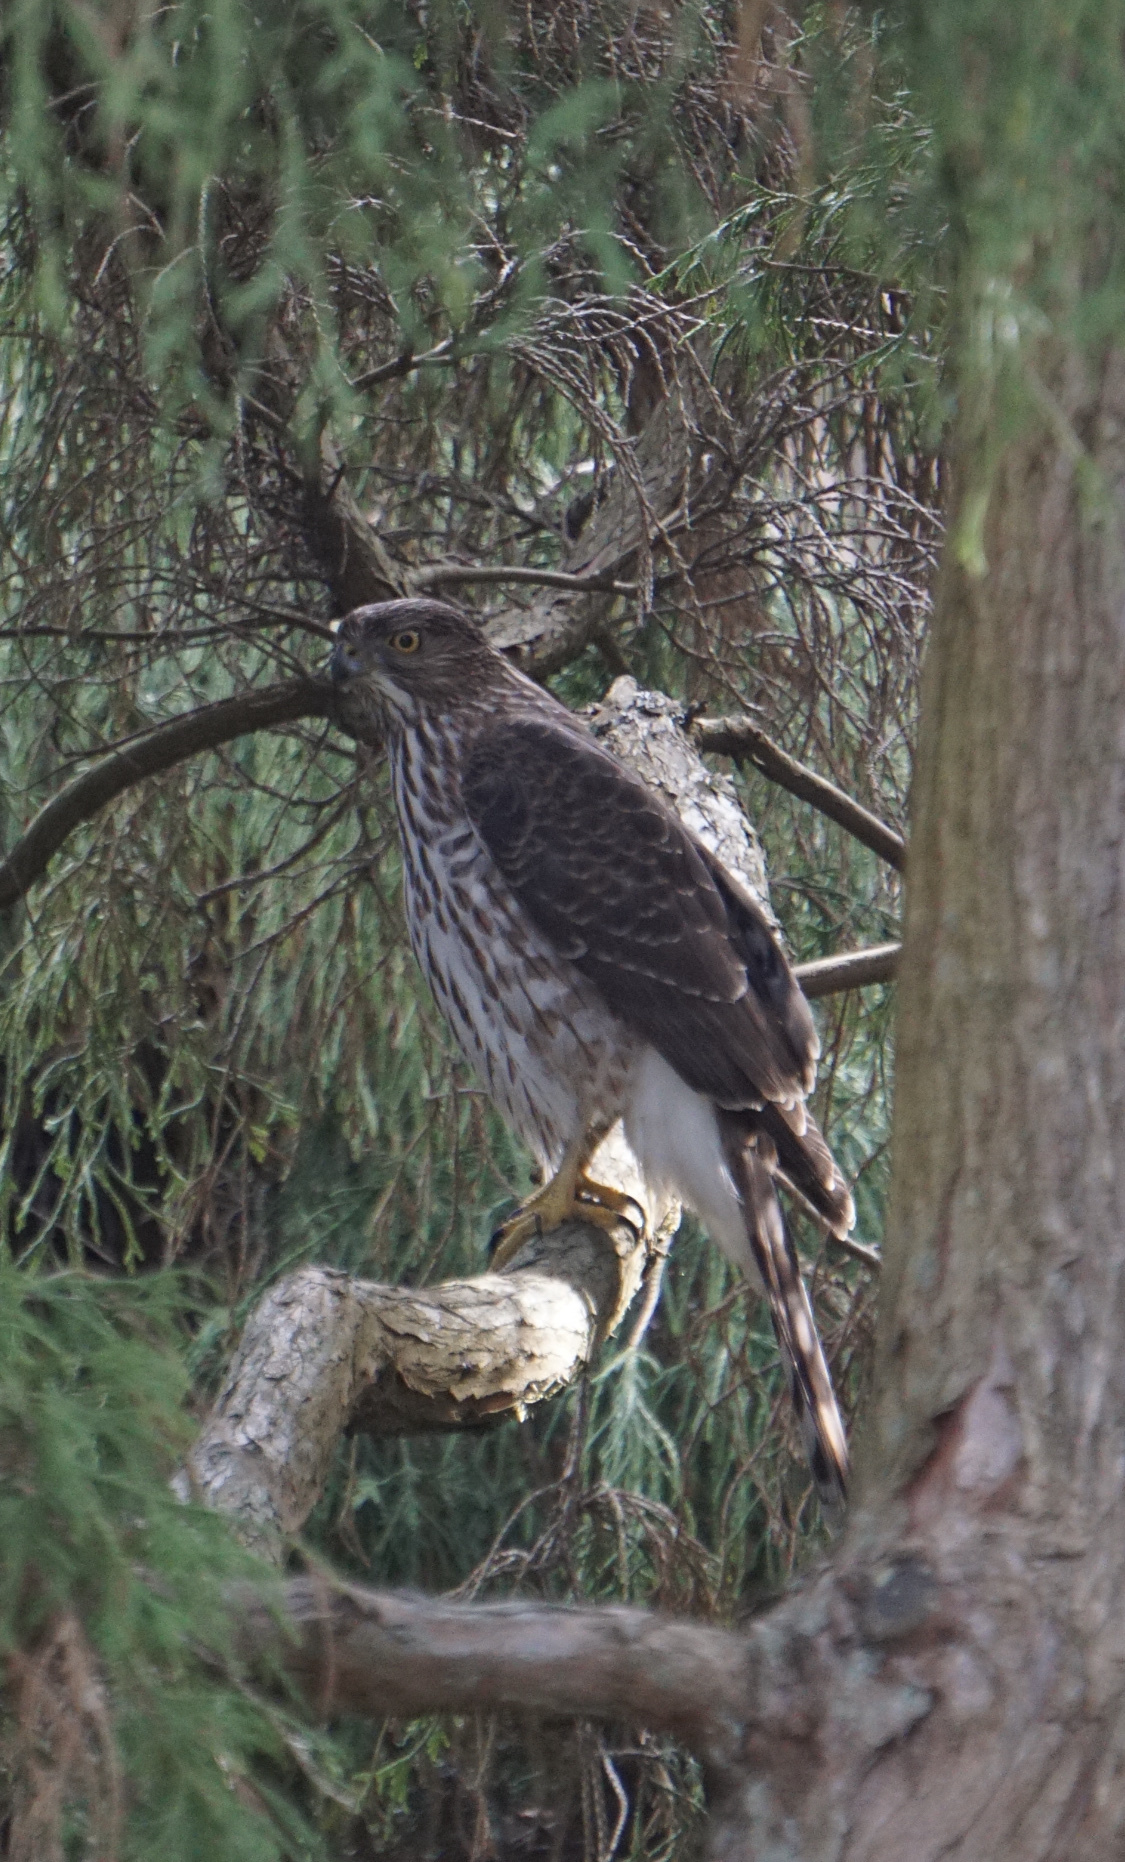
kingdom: Animalia
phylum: Chordata
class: Aves
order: Accipitriformes
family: Accipitridae
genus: Accipiter
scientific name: Accipiter cooperii
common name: Cooper's hawk
